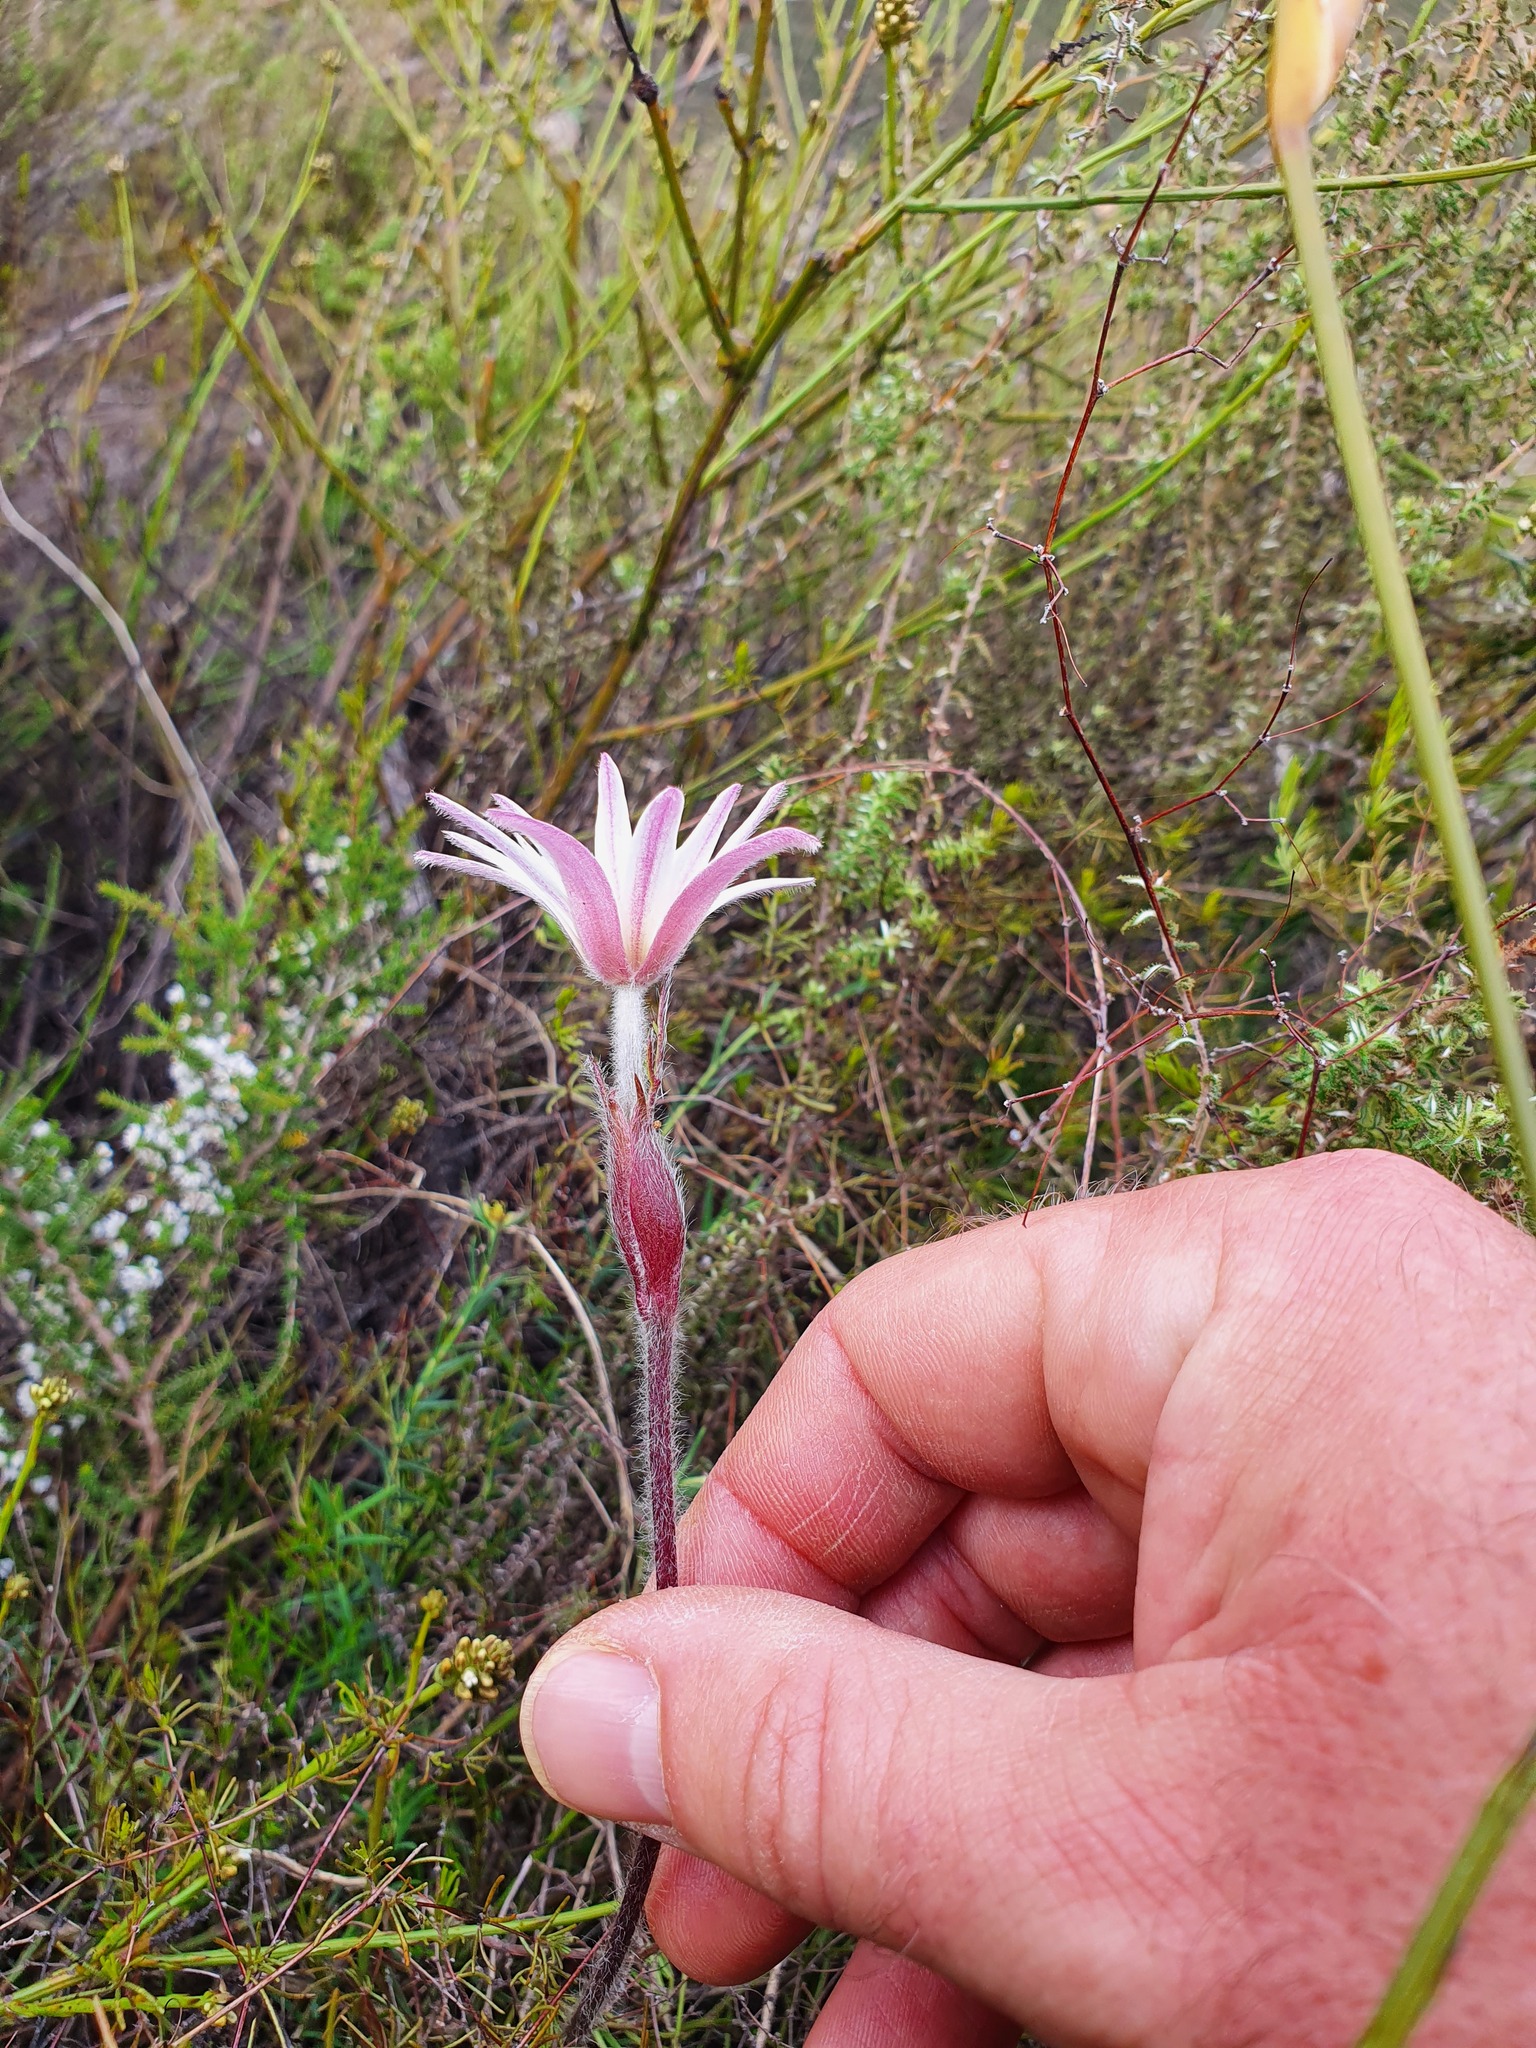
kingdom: Plantae
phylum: Tracheophyta
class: Magnoliopsida
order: Ranunculales
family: Ranunculaceae
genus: Knowltonia
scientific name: Knowltonia tenuifolia
